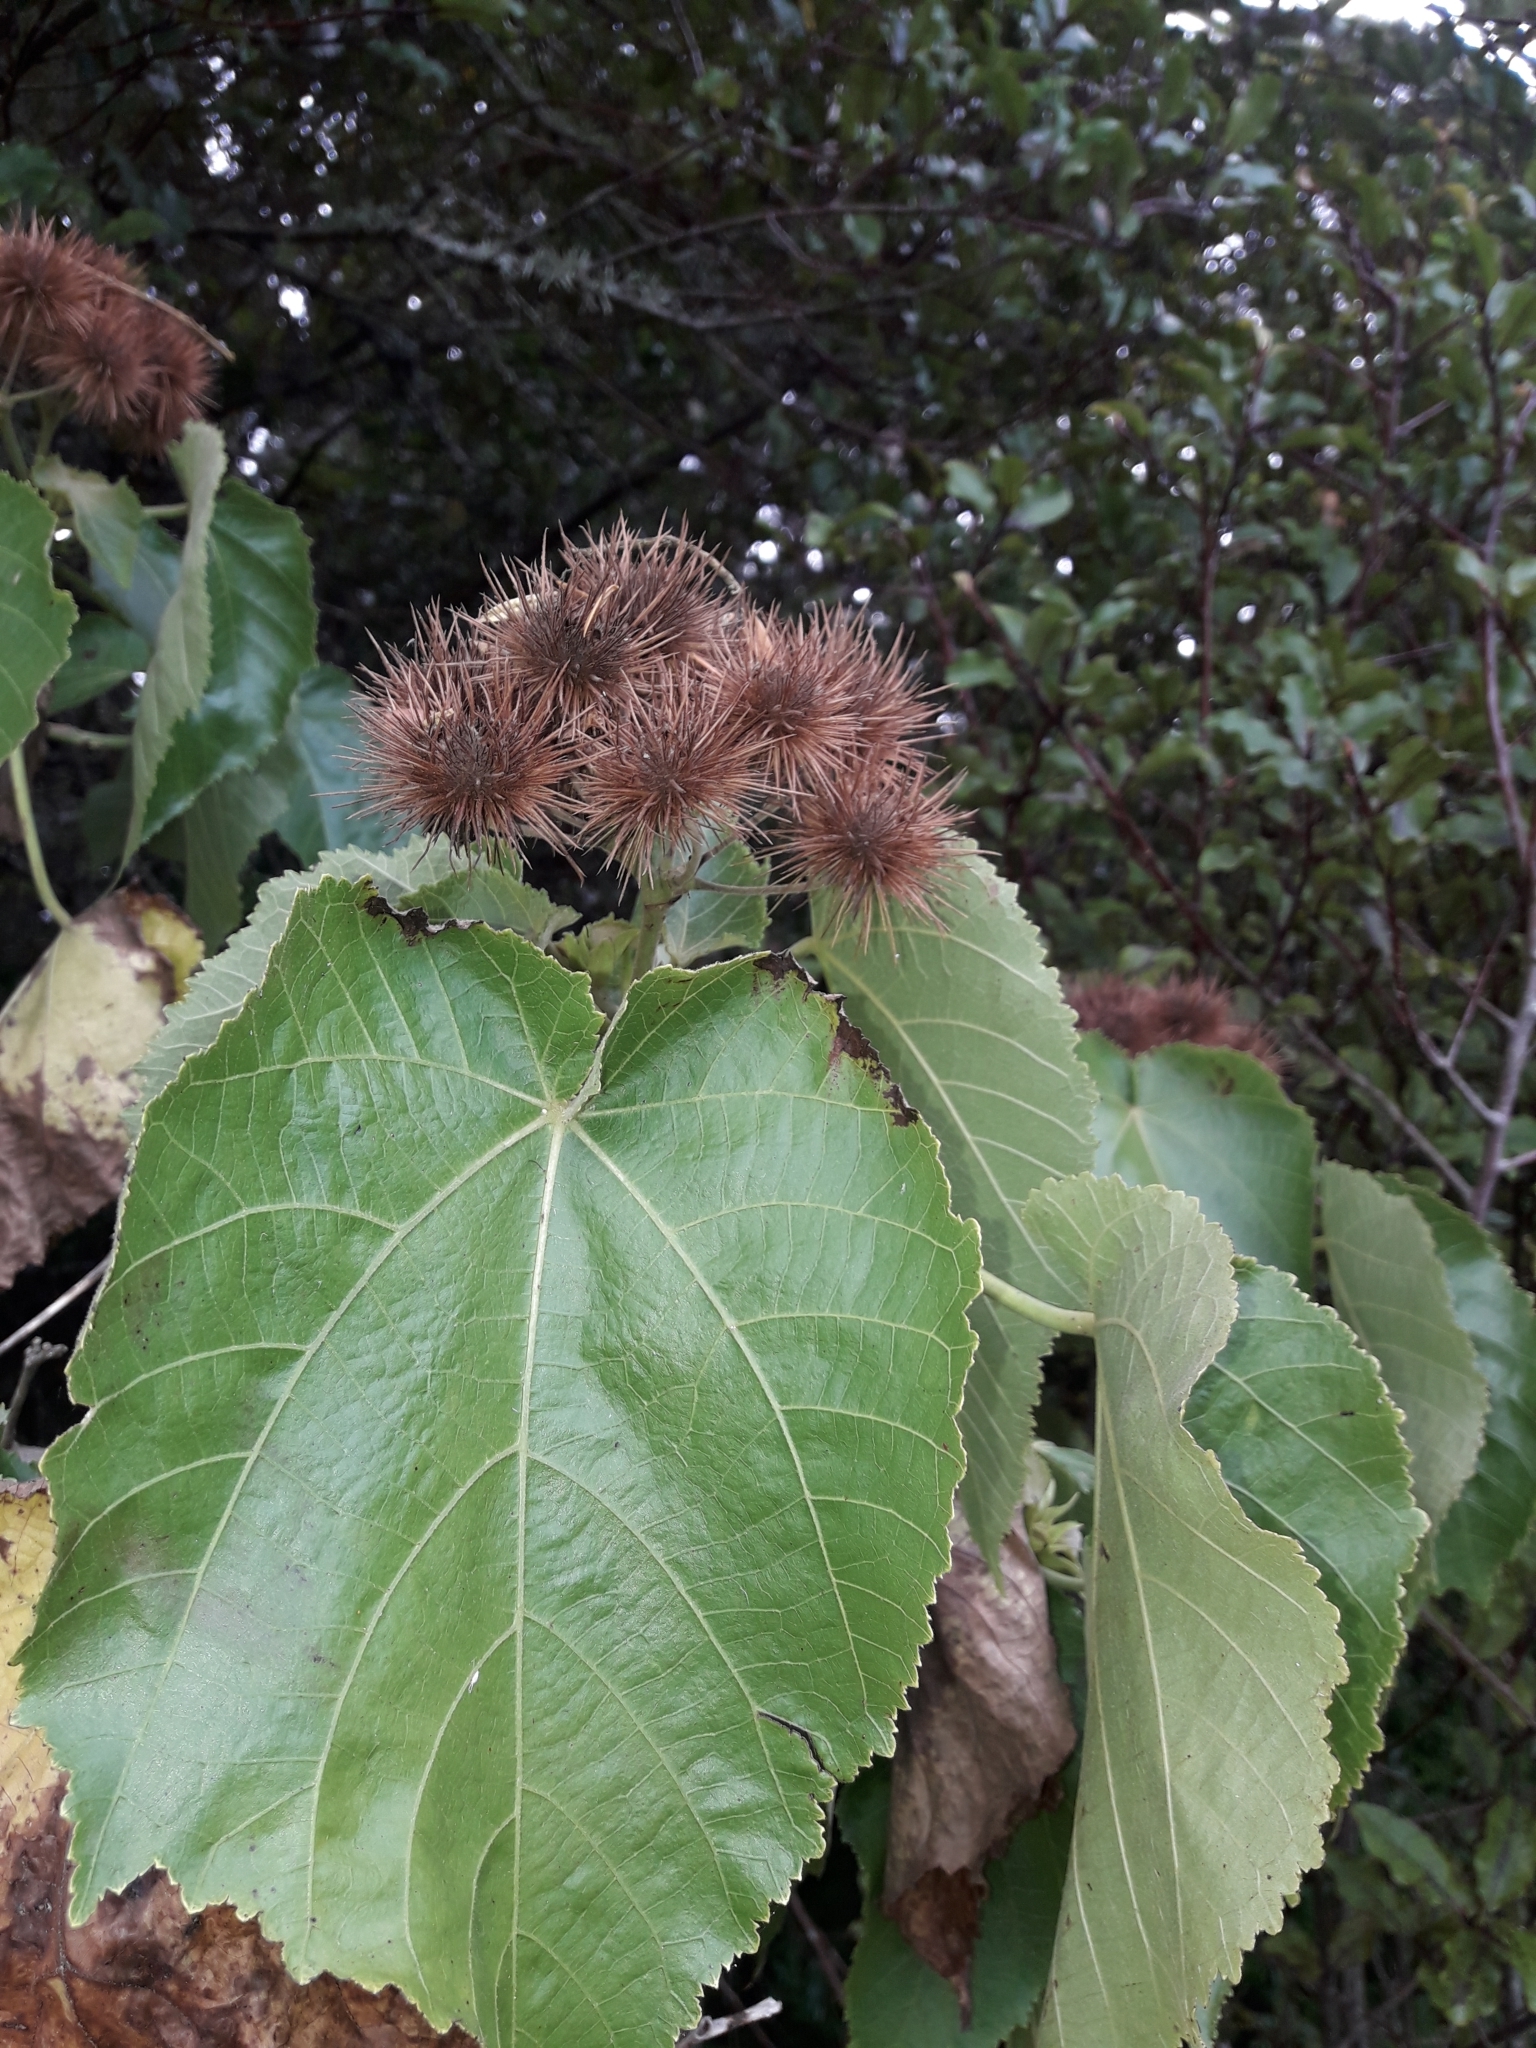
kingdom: Plantae
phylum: Tracheophyta
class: Magnoliopsida
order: Malvales
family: Malvaceae
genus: Entelea
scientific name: Entelea arborescens
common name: New zealand-mulberry
